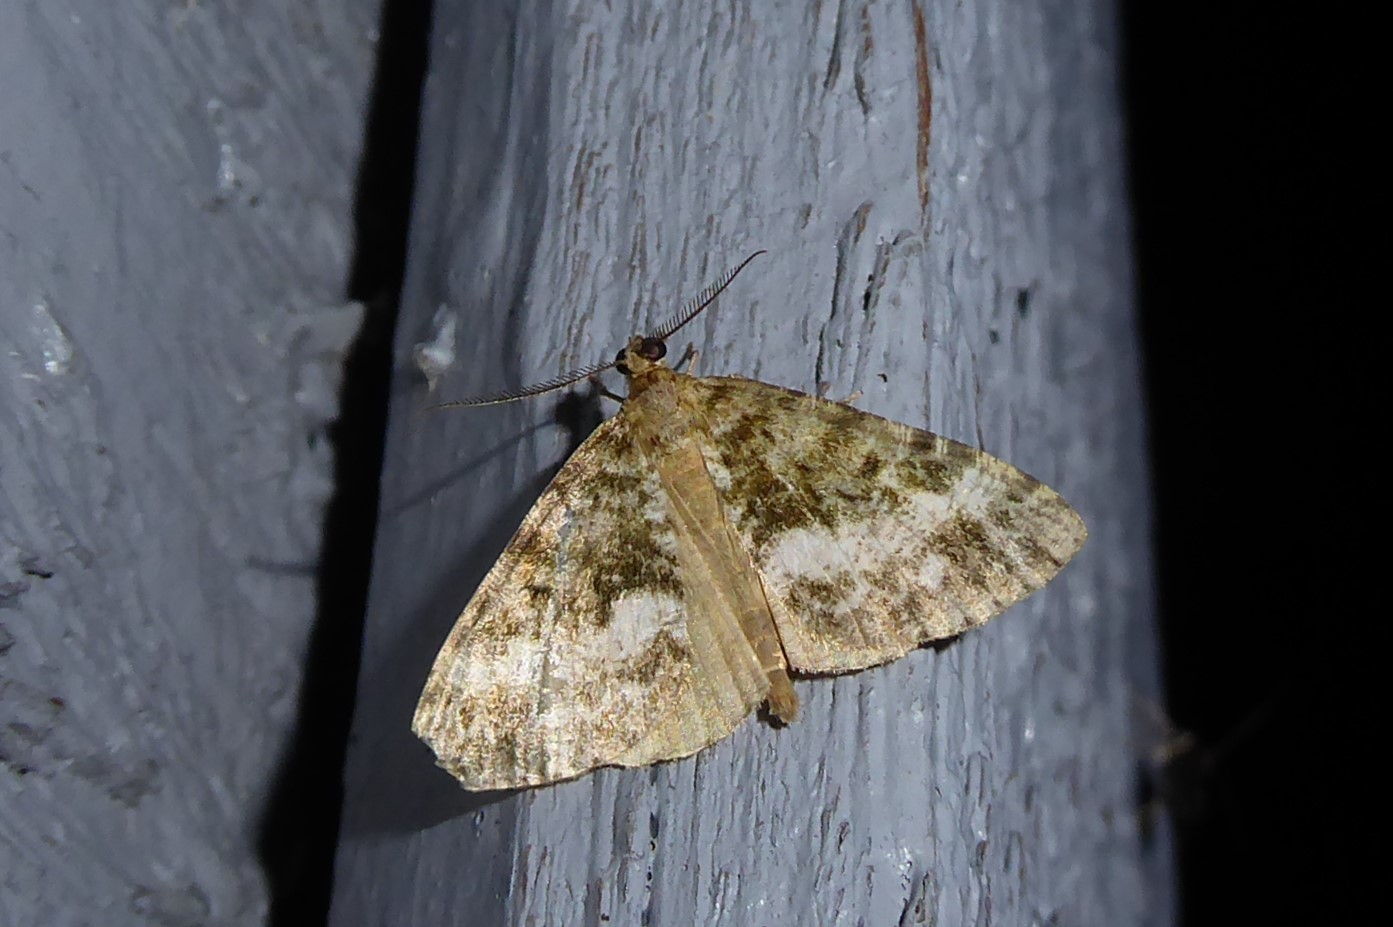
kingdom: Animalia
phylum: Arthropoda
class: Insecta
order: Lepidoptera
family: Geometridae
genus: Pseudocoremia
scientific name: Pseudocoremia lactiflua
